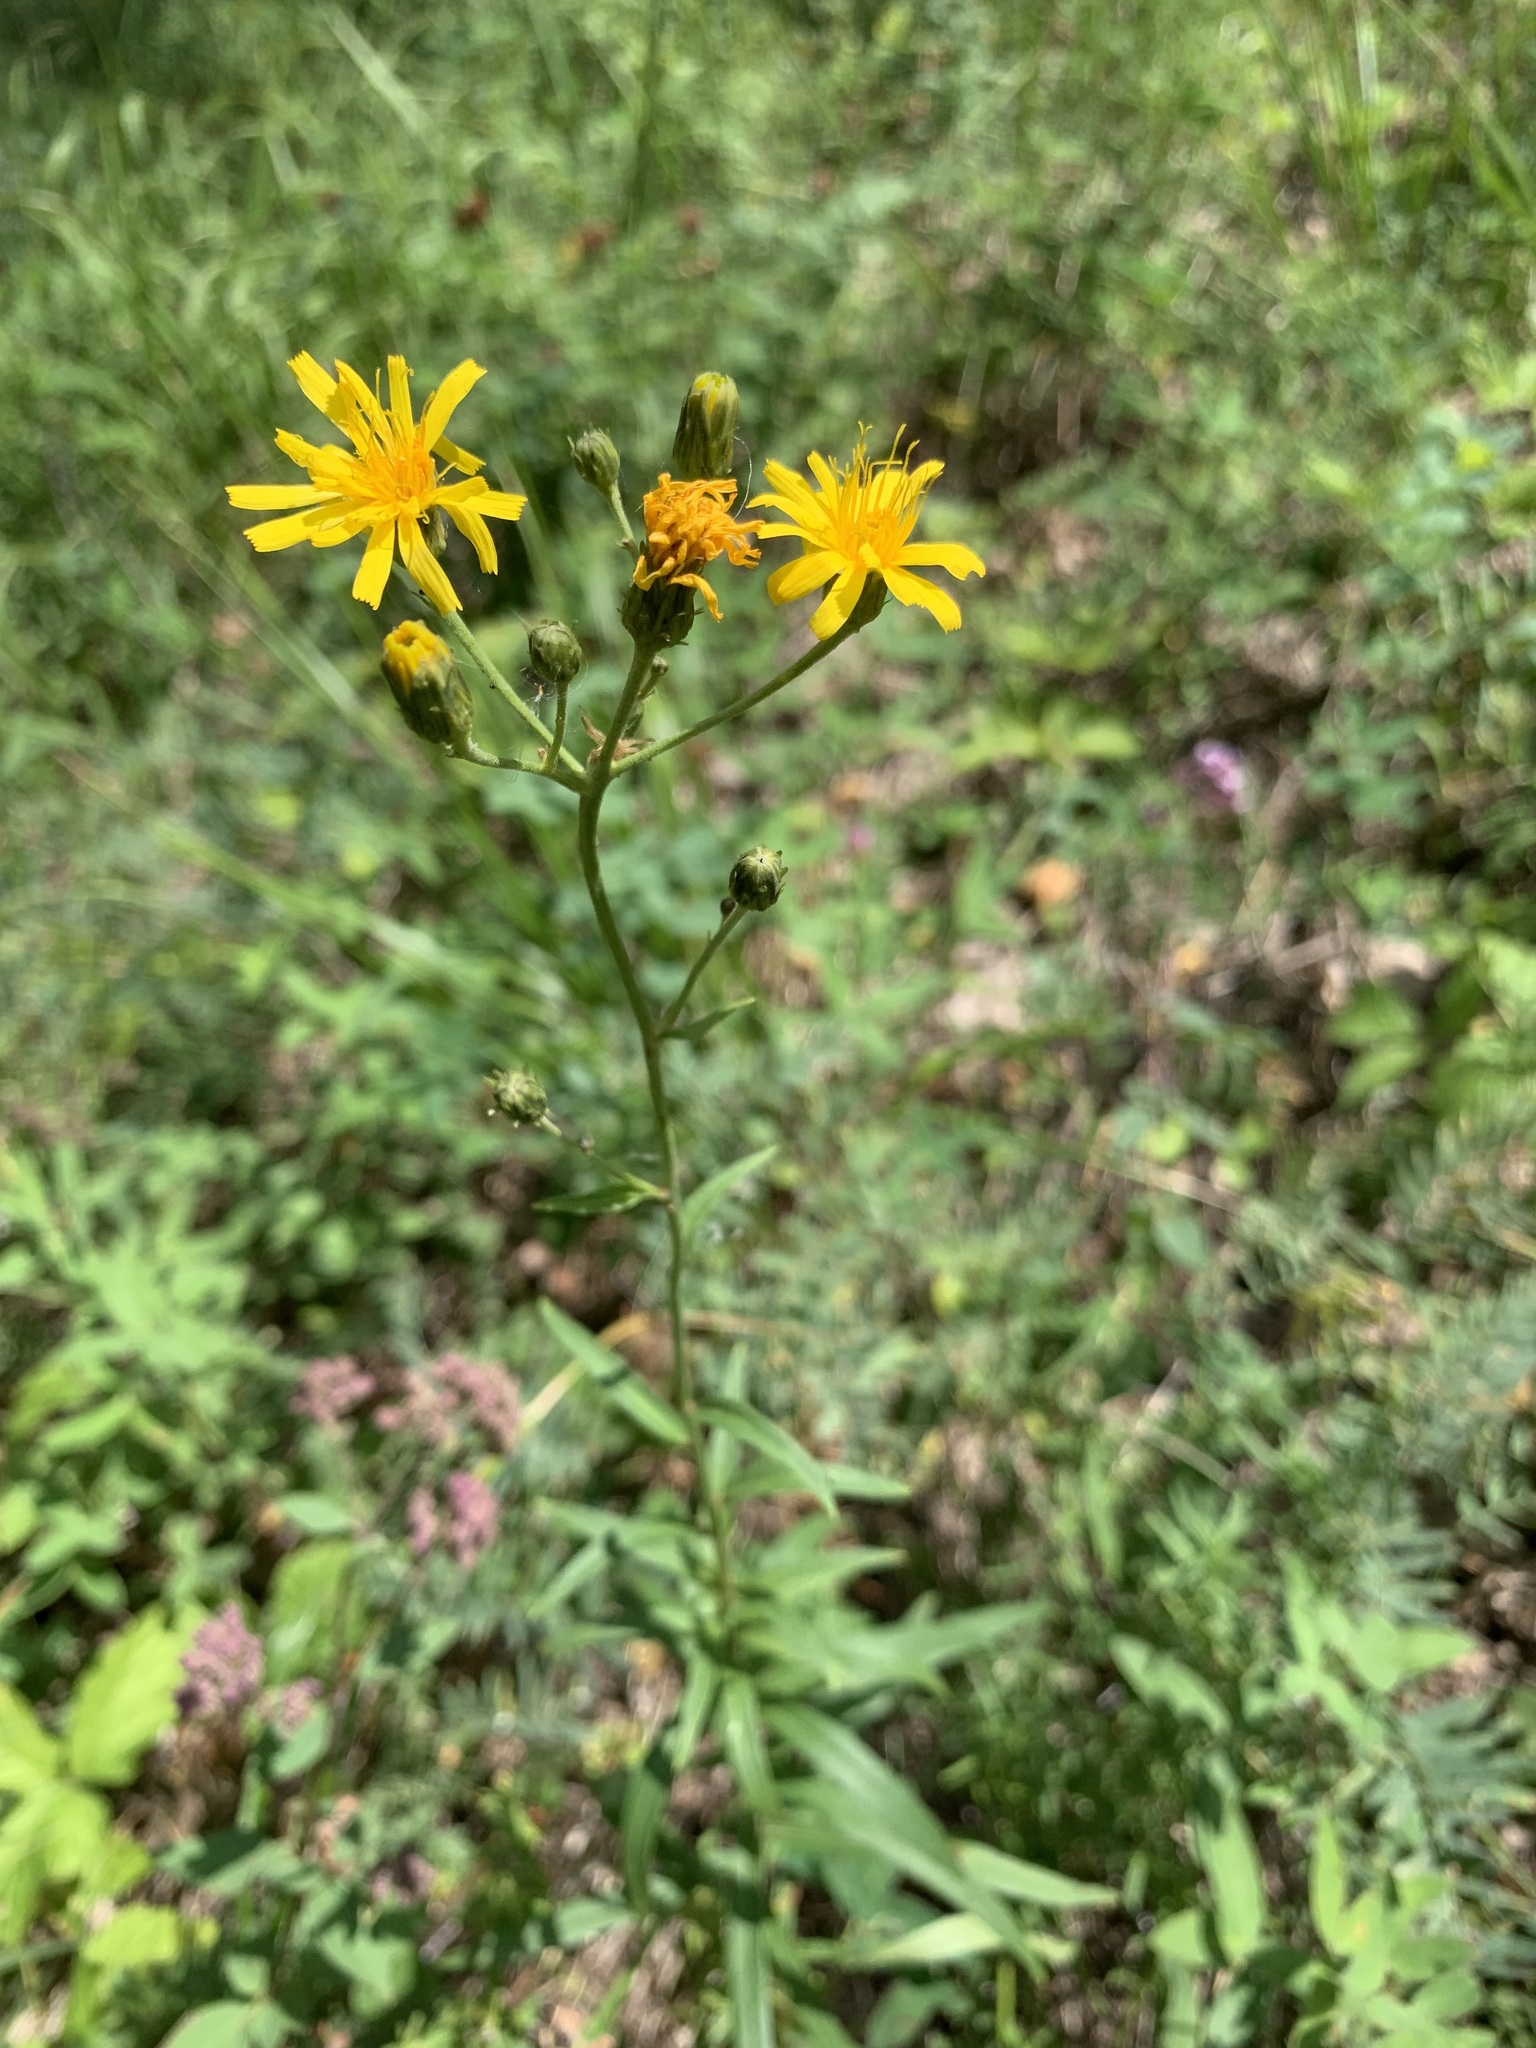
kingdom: Plantae
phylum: Tracheophyta
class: Magnoliopsida
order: Asterales
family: Asteraceae
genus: Hieracium
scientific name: Hieracium umbellatum
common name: Northern hawkweed
